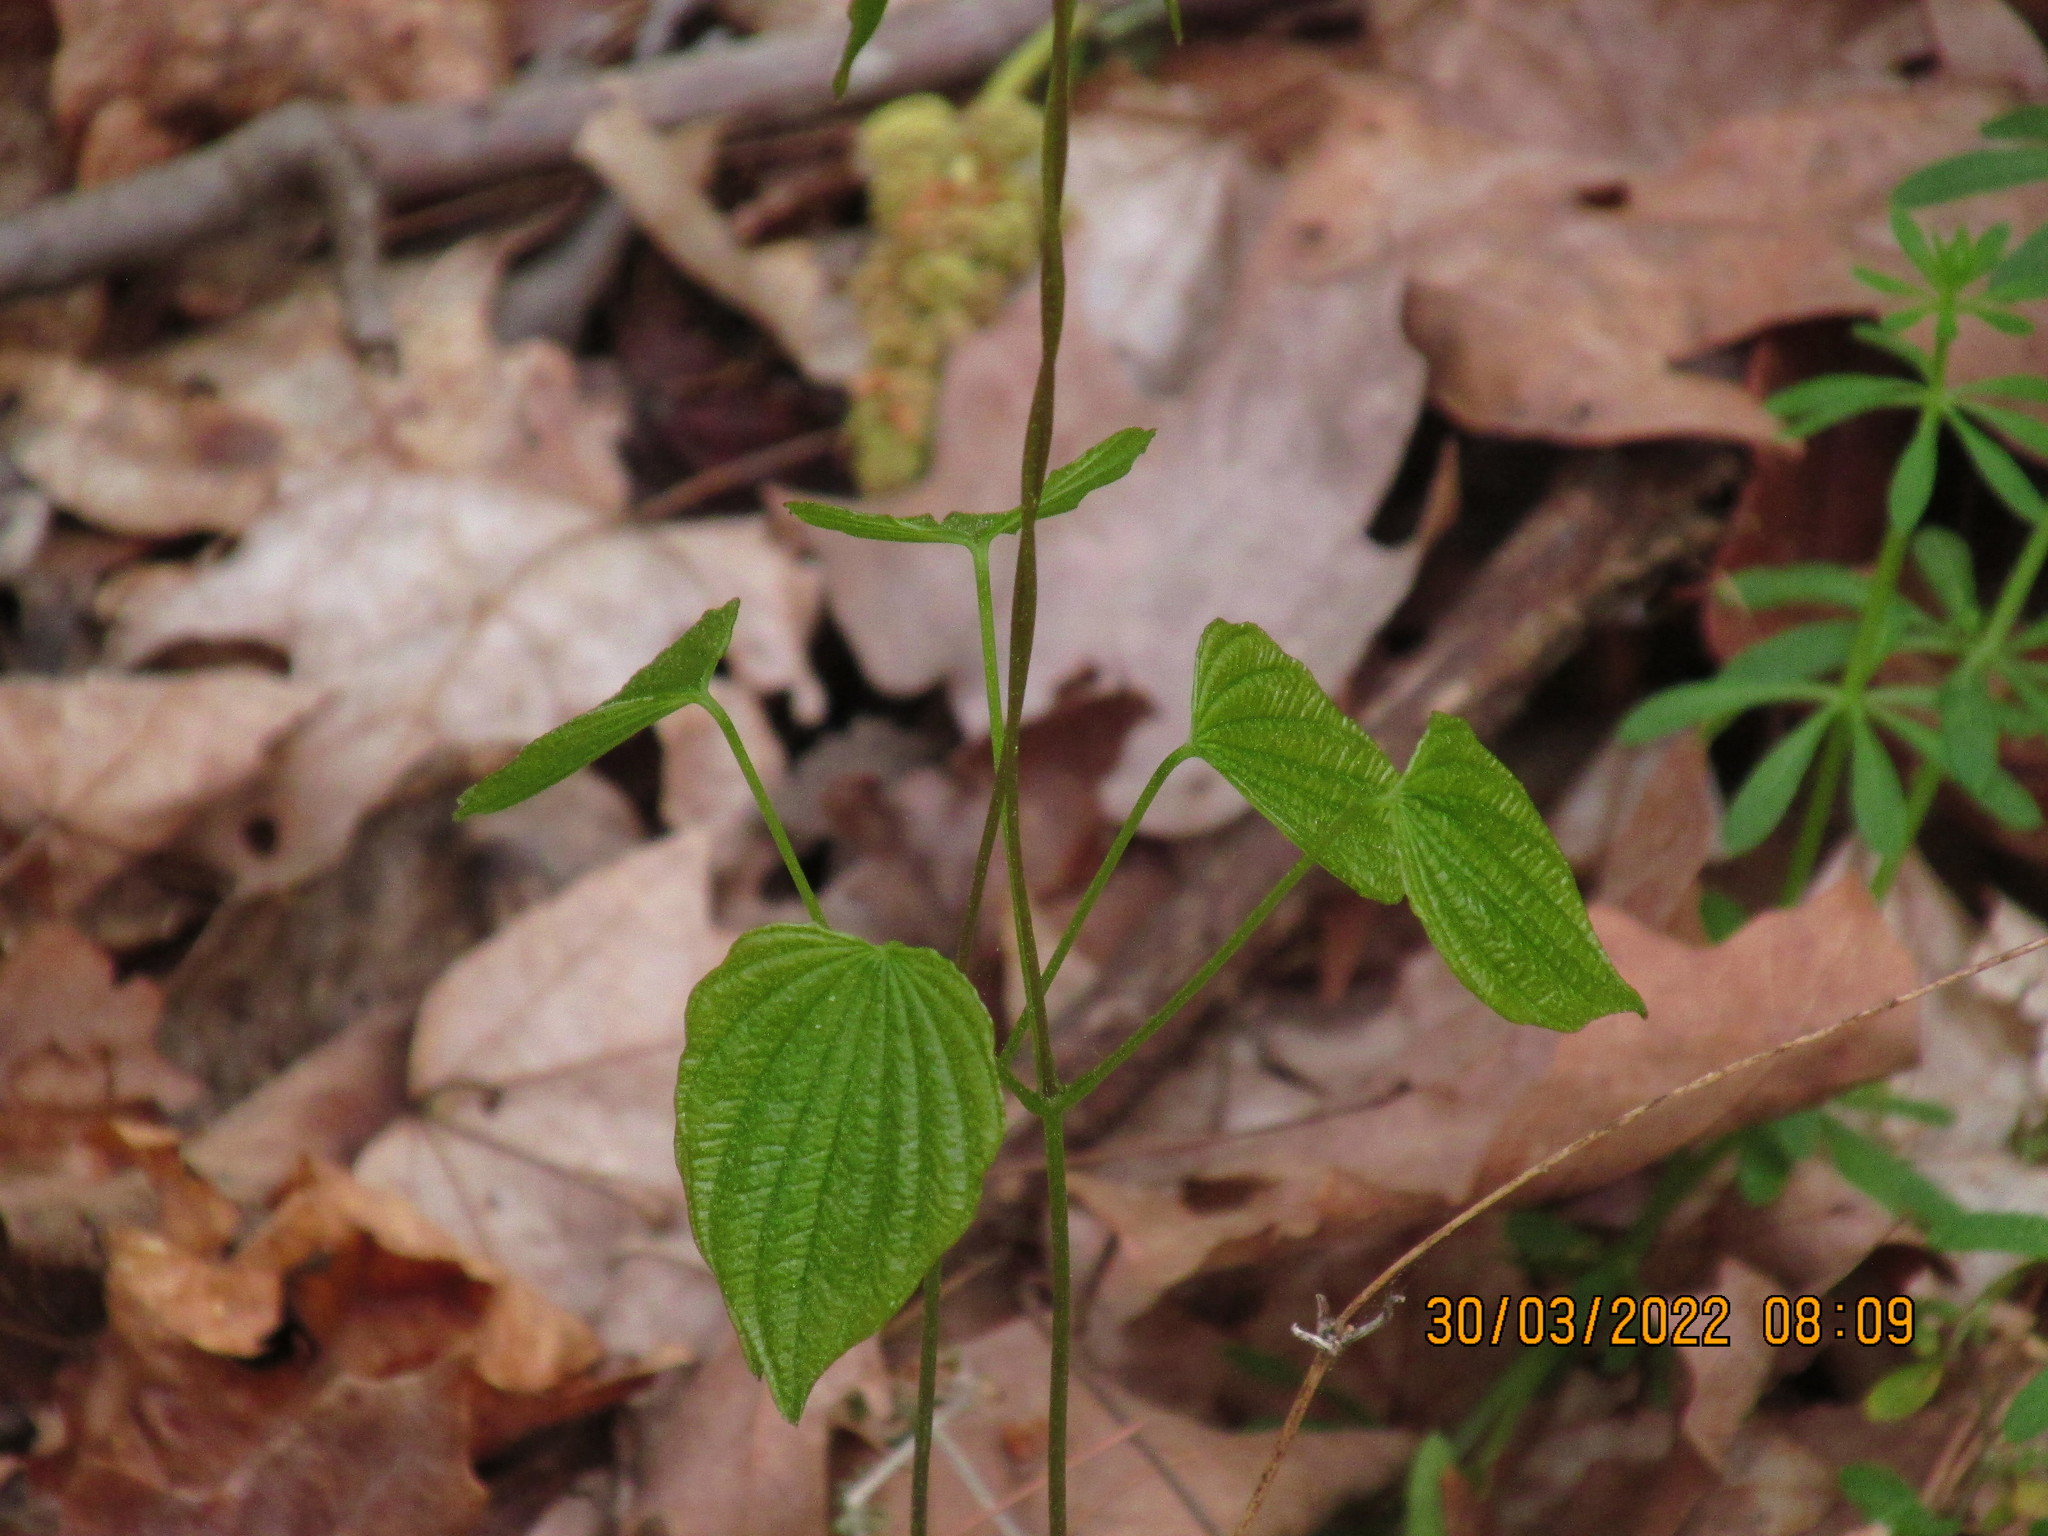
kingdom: Plantae
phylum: Tracheophyta
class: Liliopsida
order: Dioscoreales
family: Dioscoreaceae
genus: Dioscorea
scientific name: Dioscorea villosa
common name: Wild yam
